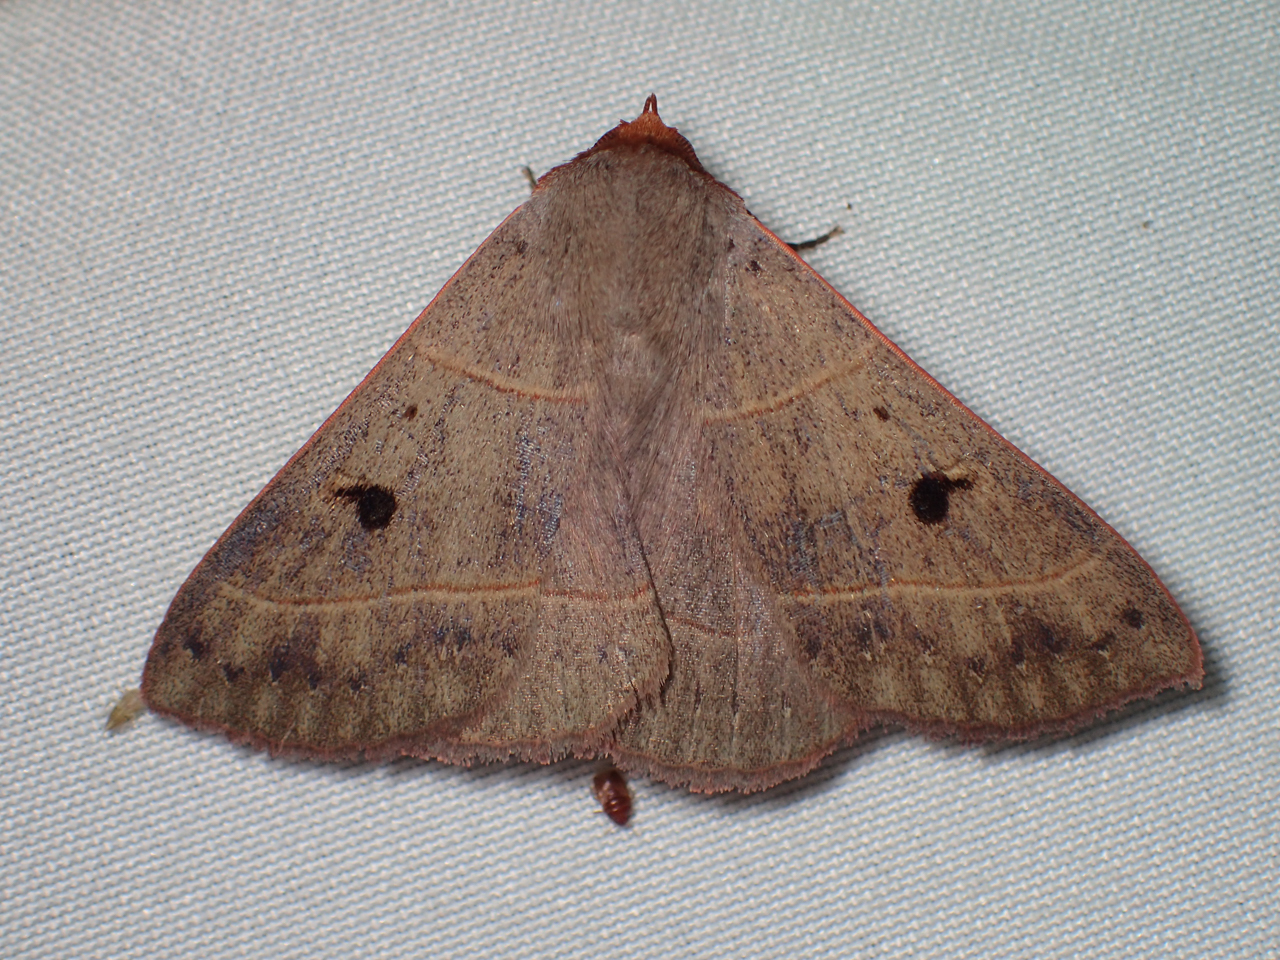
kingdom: Animalia
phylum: Arthropoda
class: Insecta
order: Lepidoptera
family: Erebidae
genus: Panopoda
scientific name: Panopoda carneicosta
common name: Brown panopoda moth
